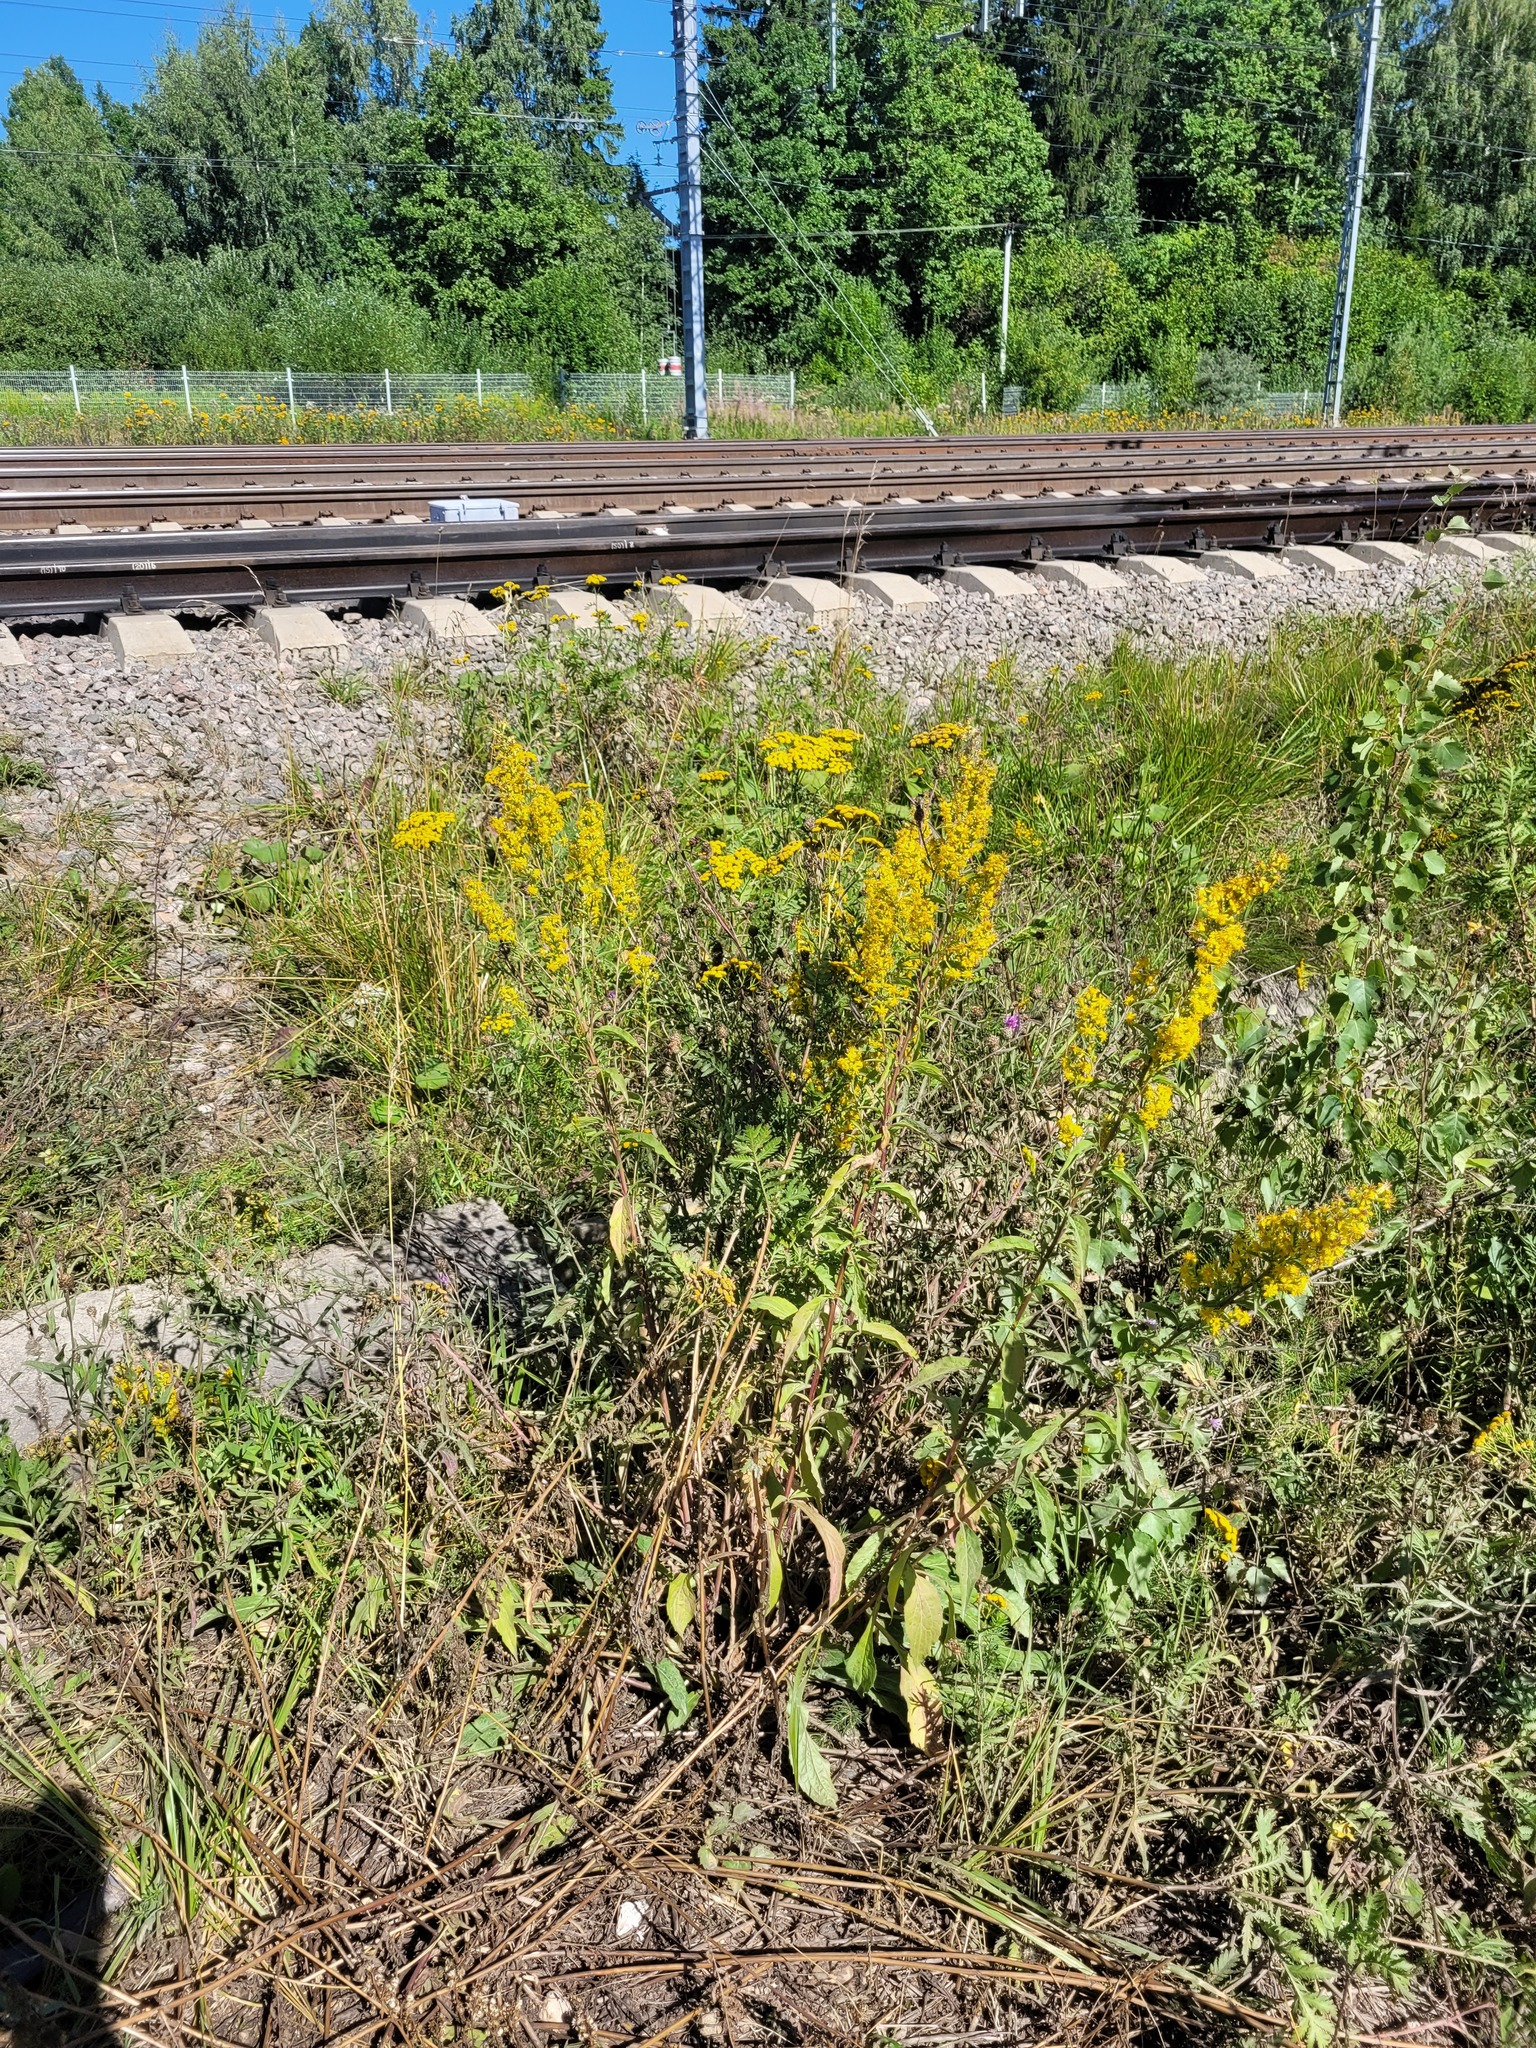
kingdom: Plantae
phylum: Tracheophyta
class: Magnoliopsida
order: Asterales
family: Asteraceae
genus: Solidago
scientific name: Solidago virgaurea
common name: Goldenrod
